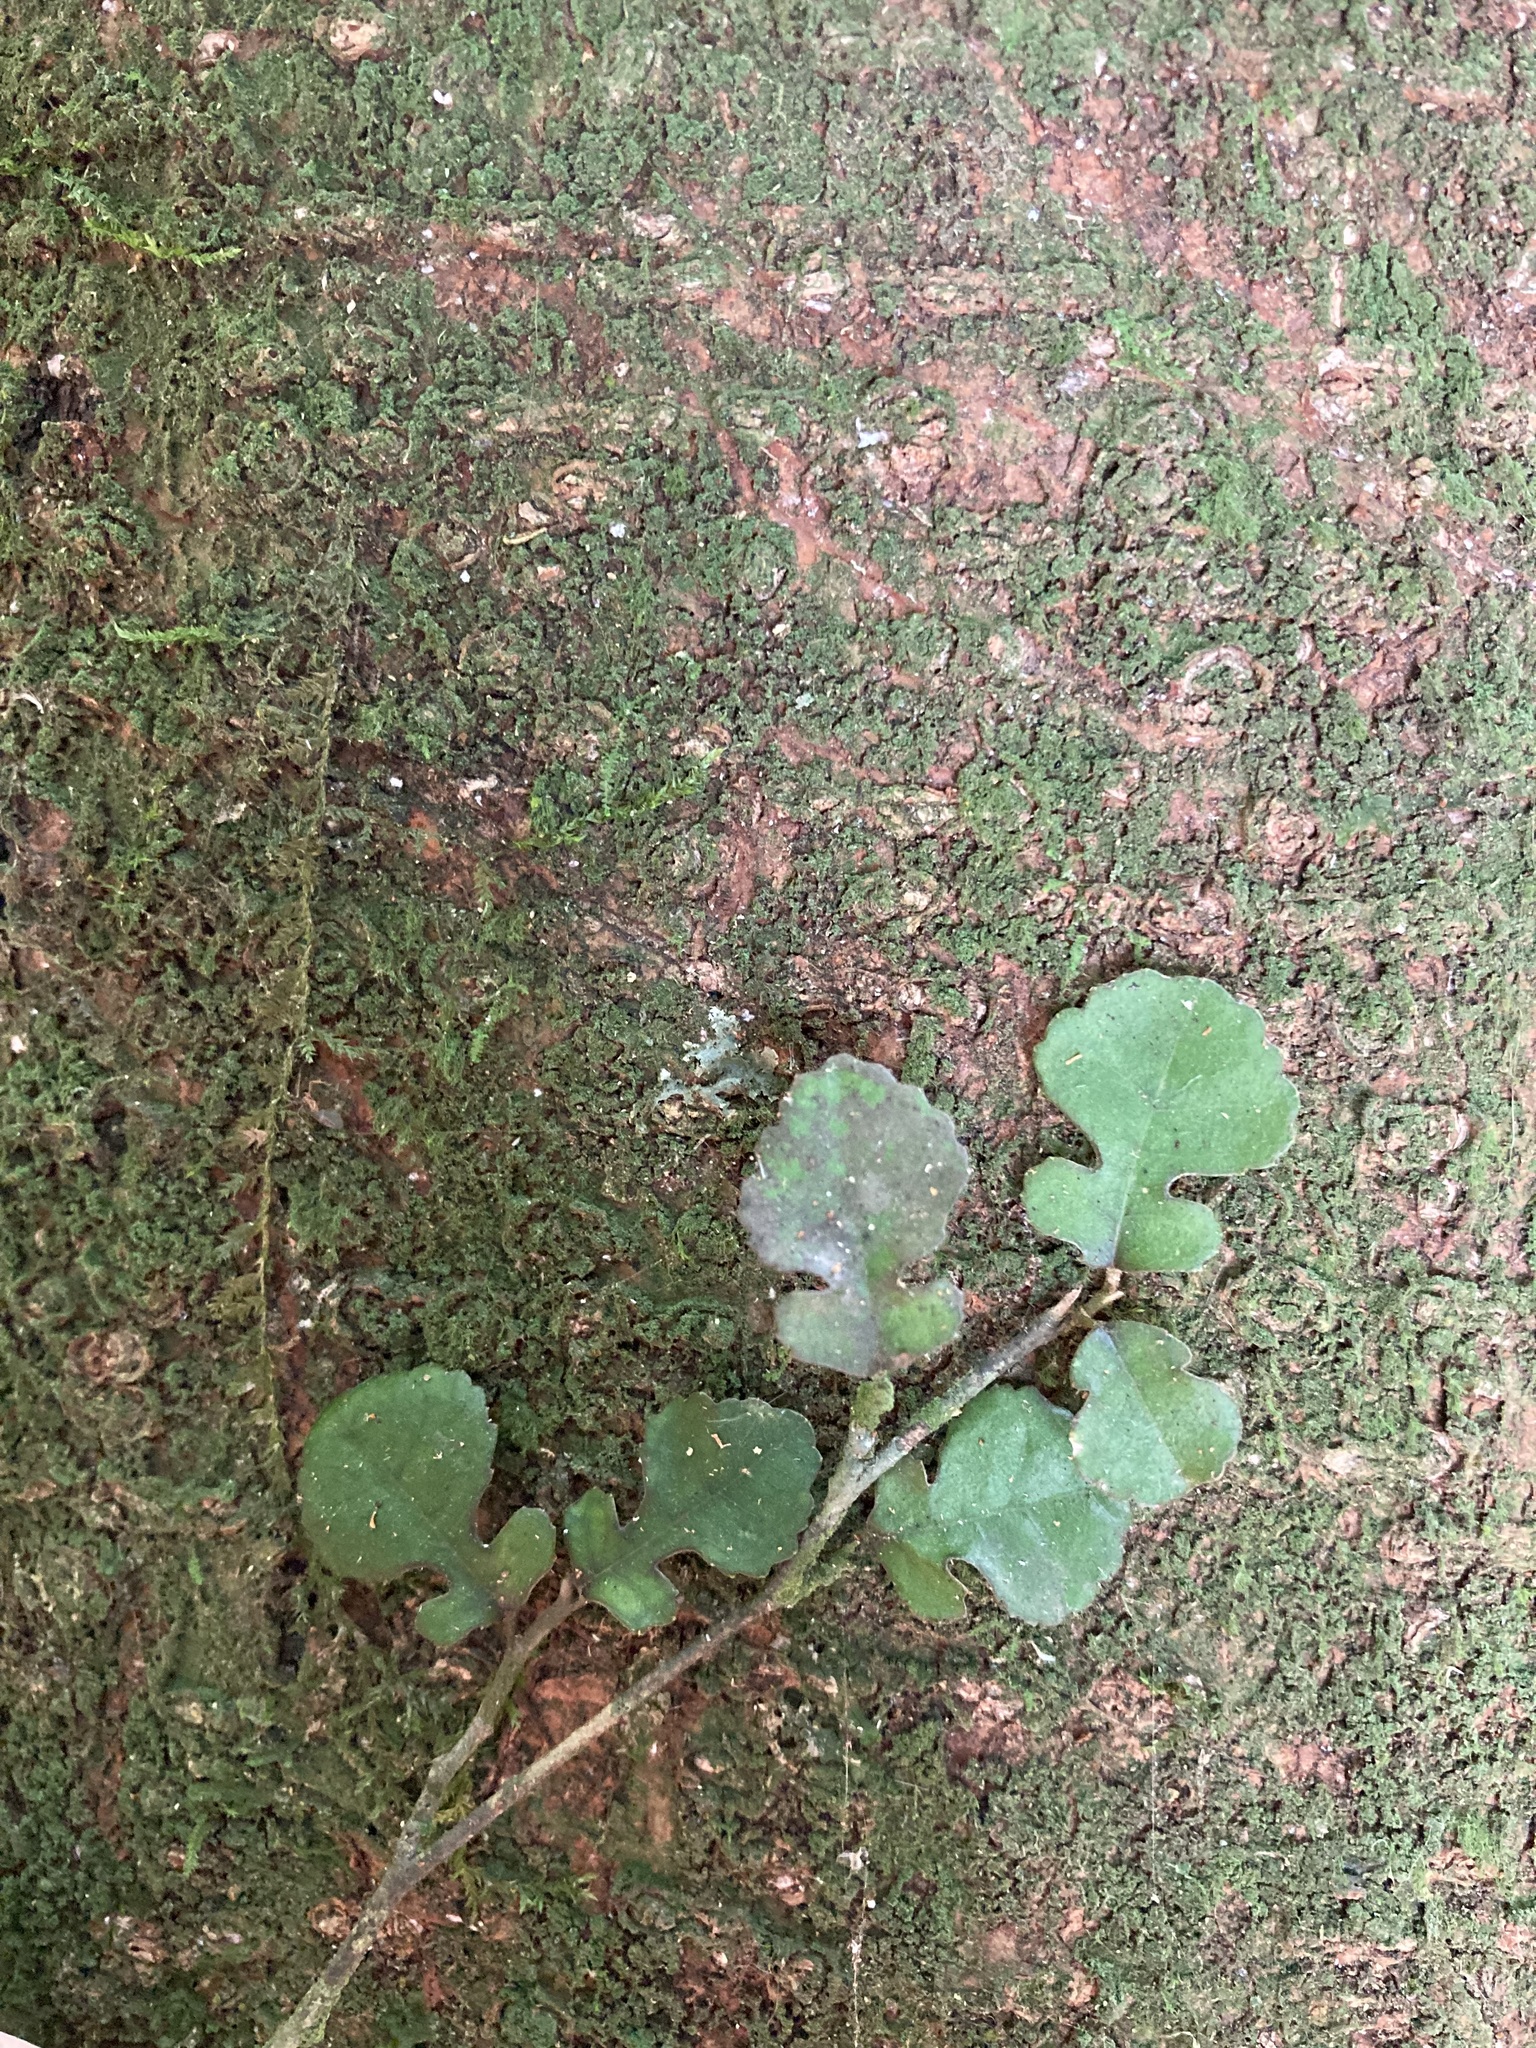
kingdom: Plantae
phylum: Tracheophyta
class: Magnoliopsida
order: Rosales
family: Moraceae
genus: Paratrophis
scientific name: Paratrophis microphylla
